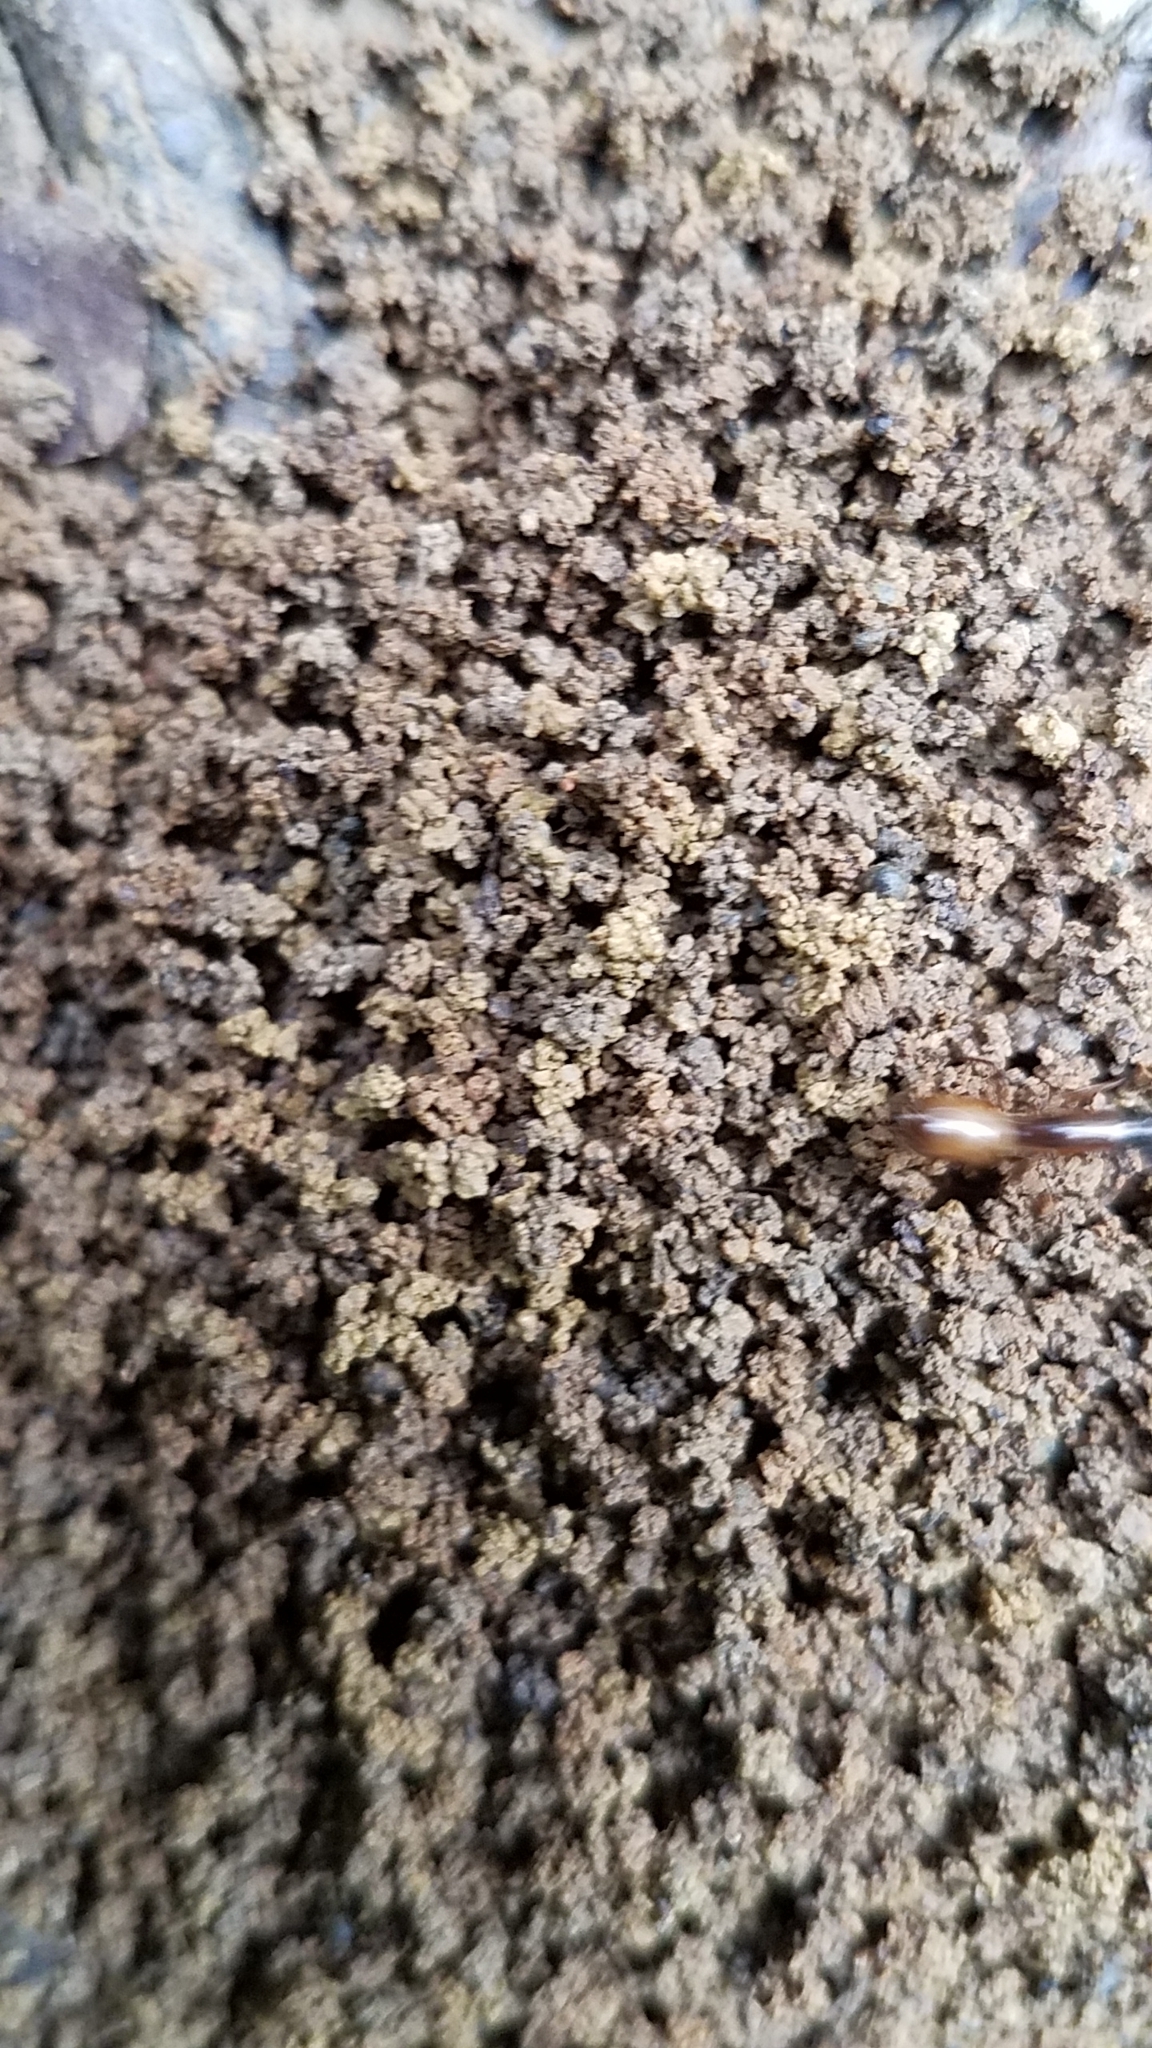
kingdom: Animalia
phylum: Arthropoda
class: Insecta
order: Hymenoptera
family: Formicidae
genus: Camponotus
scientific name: Camponotus americanus
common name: American carpenter ant
